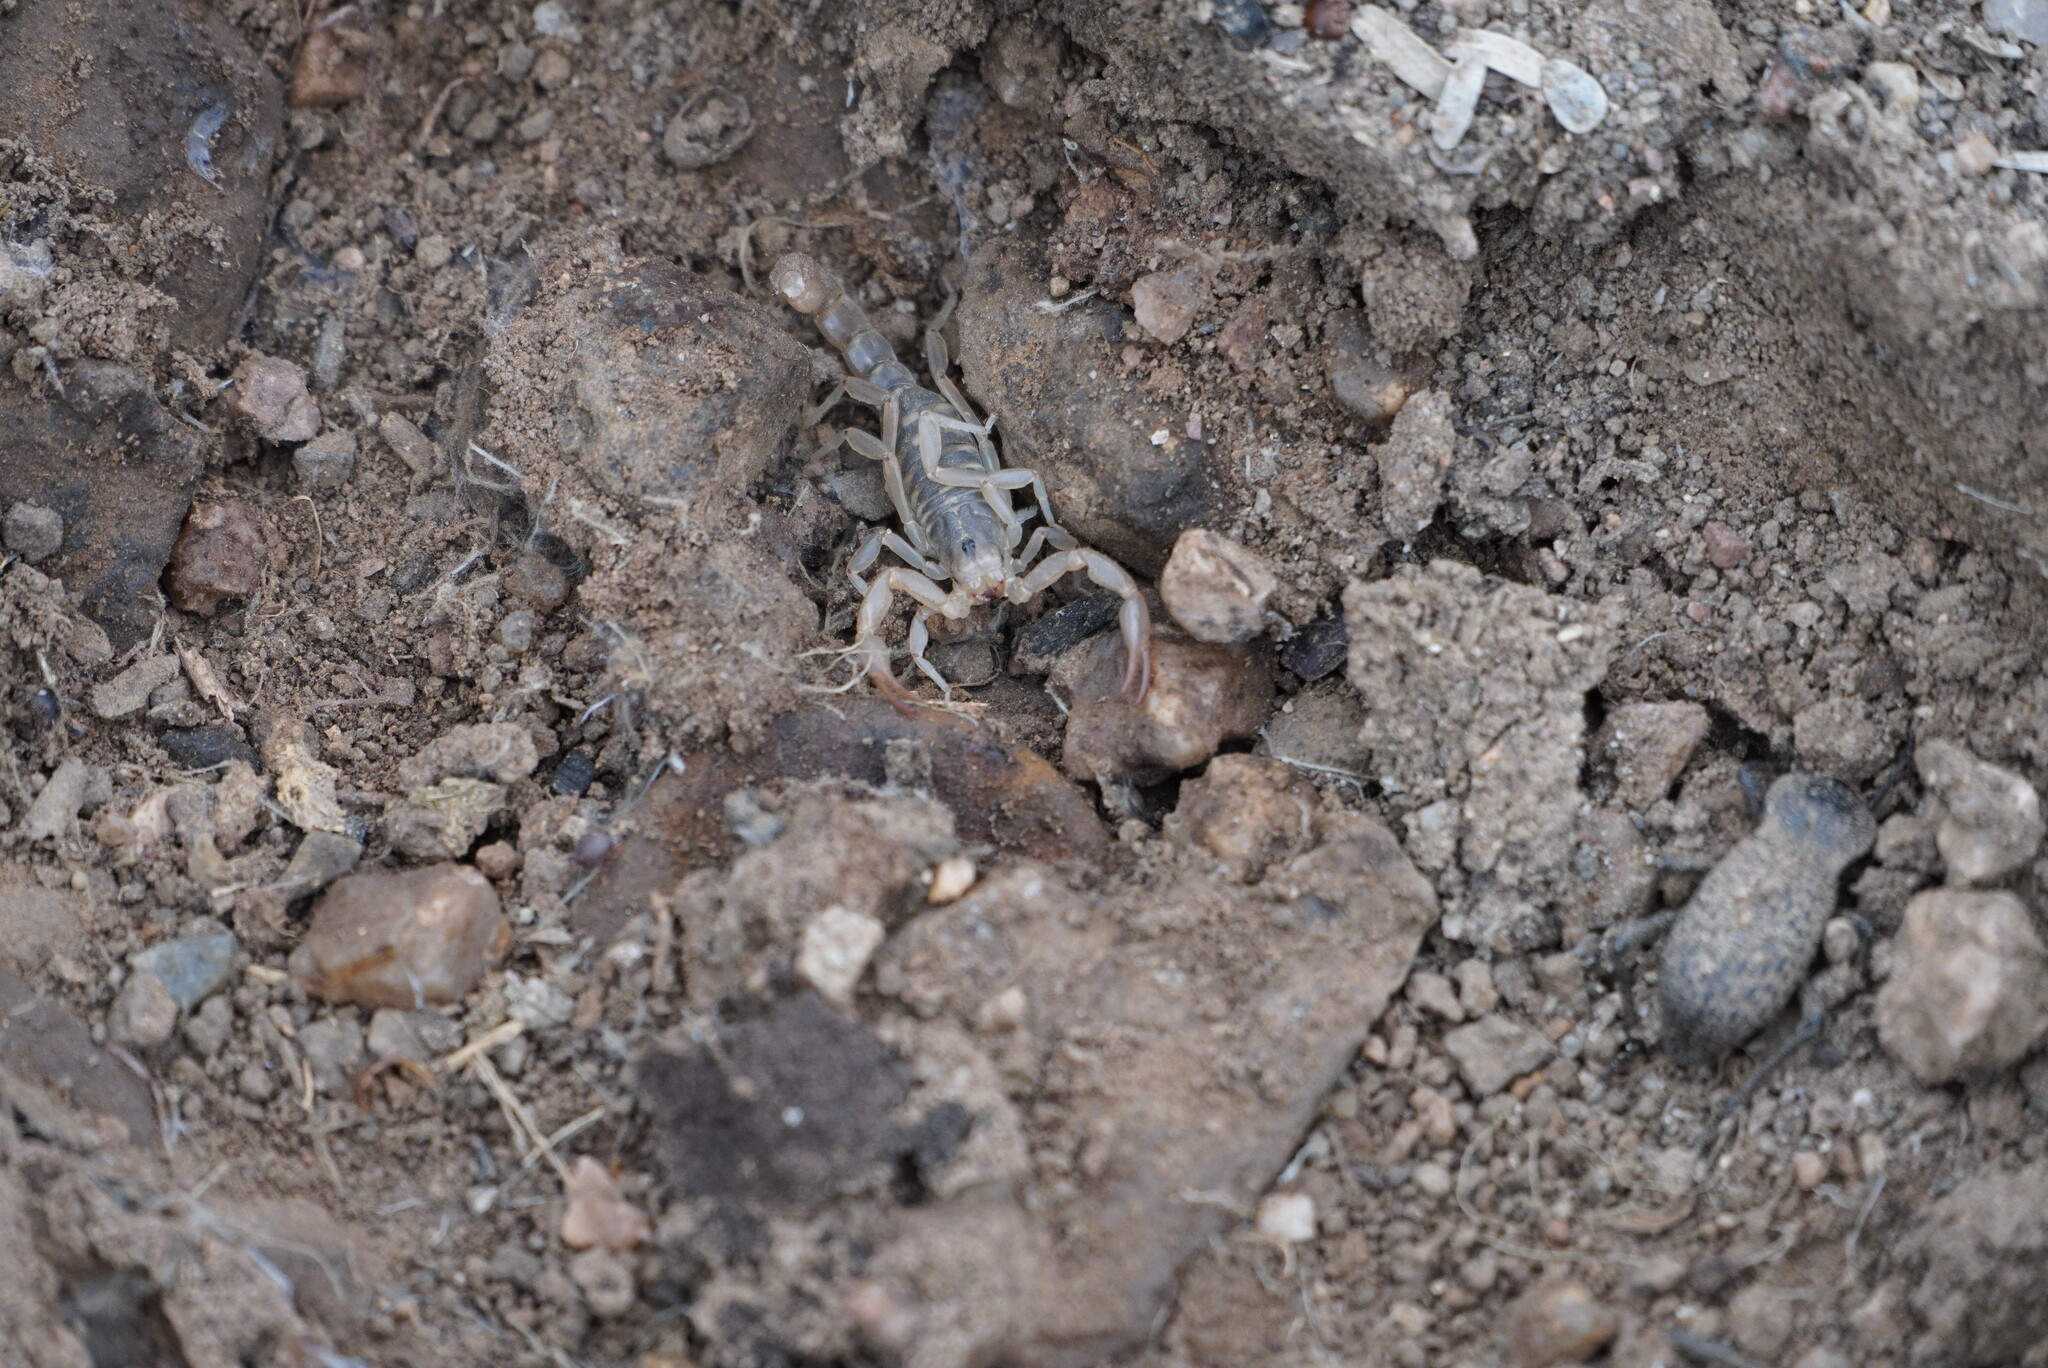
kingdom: Animalia
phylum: Arthropoda
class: Arachnida
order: Scorpiones
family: Vaejovidae
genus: Paravaejovis
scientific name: Paravaejovis spinigerus
